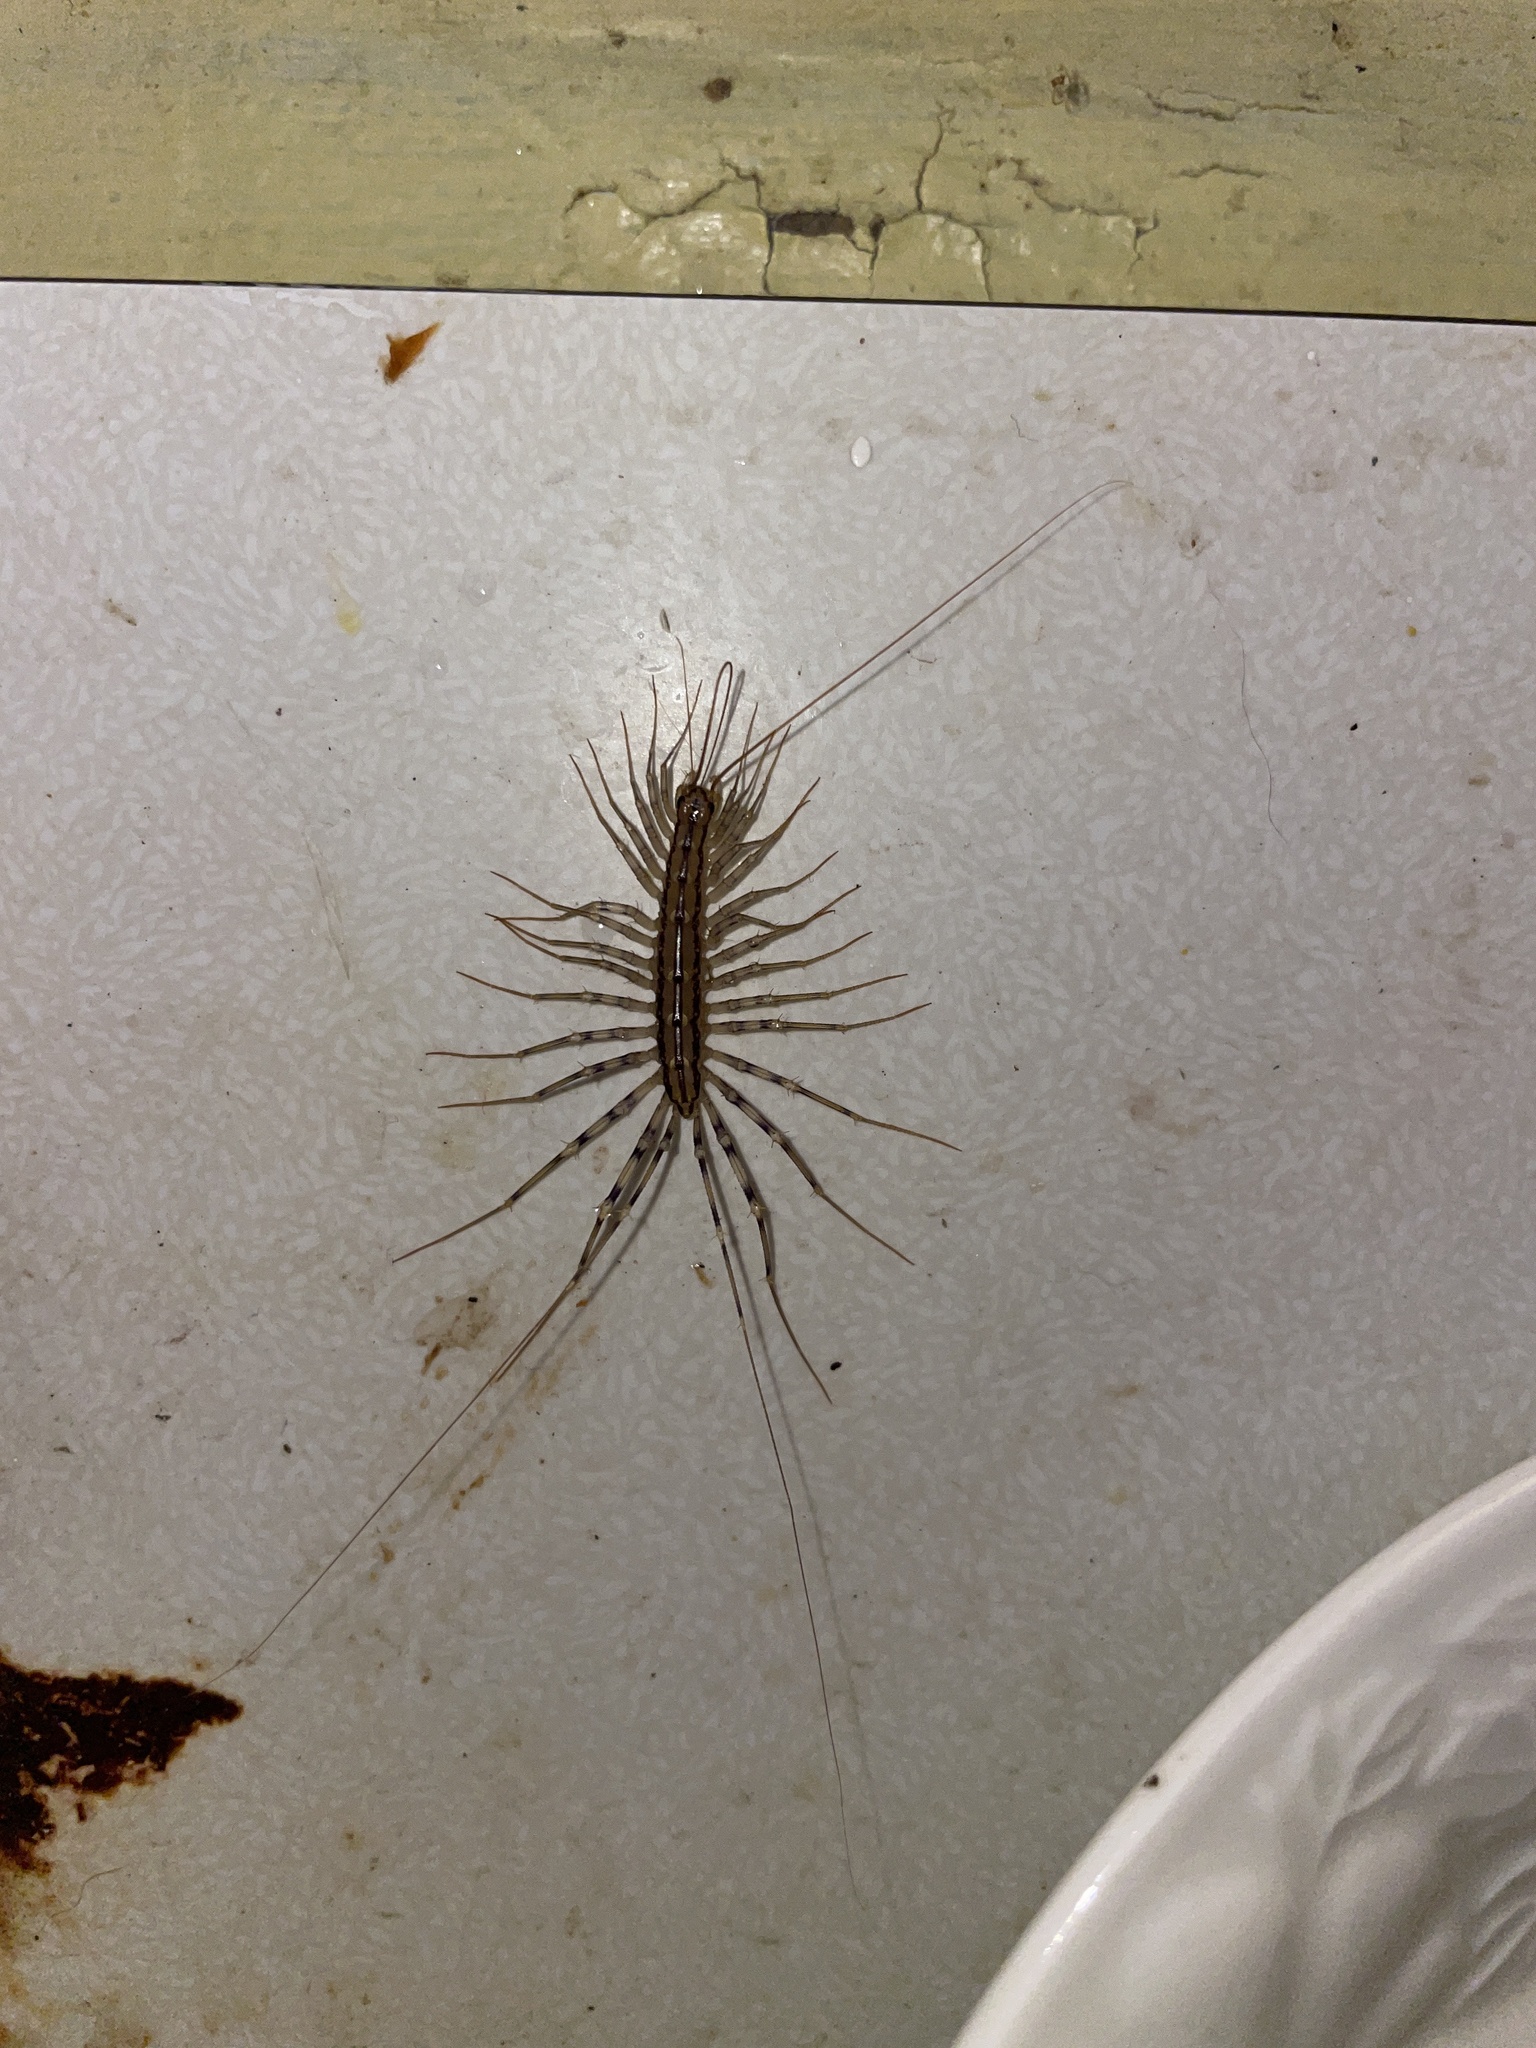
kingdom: Animalia
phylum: Arthropoda
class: Chilopoda
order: Scutigeromorpha
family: Scutigeridae
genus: Scutigera
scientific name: Scutigera coleoptrata
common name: House centipede
